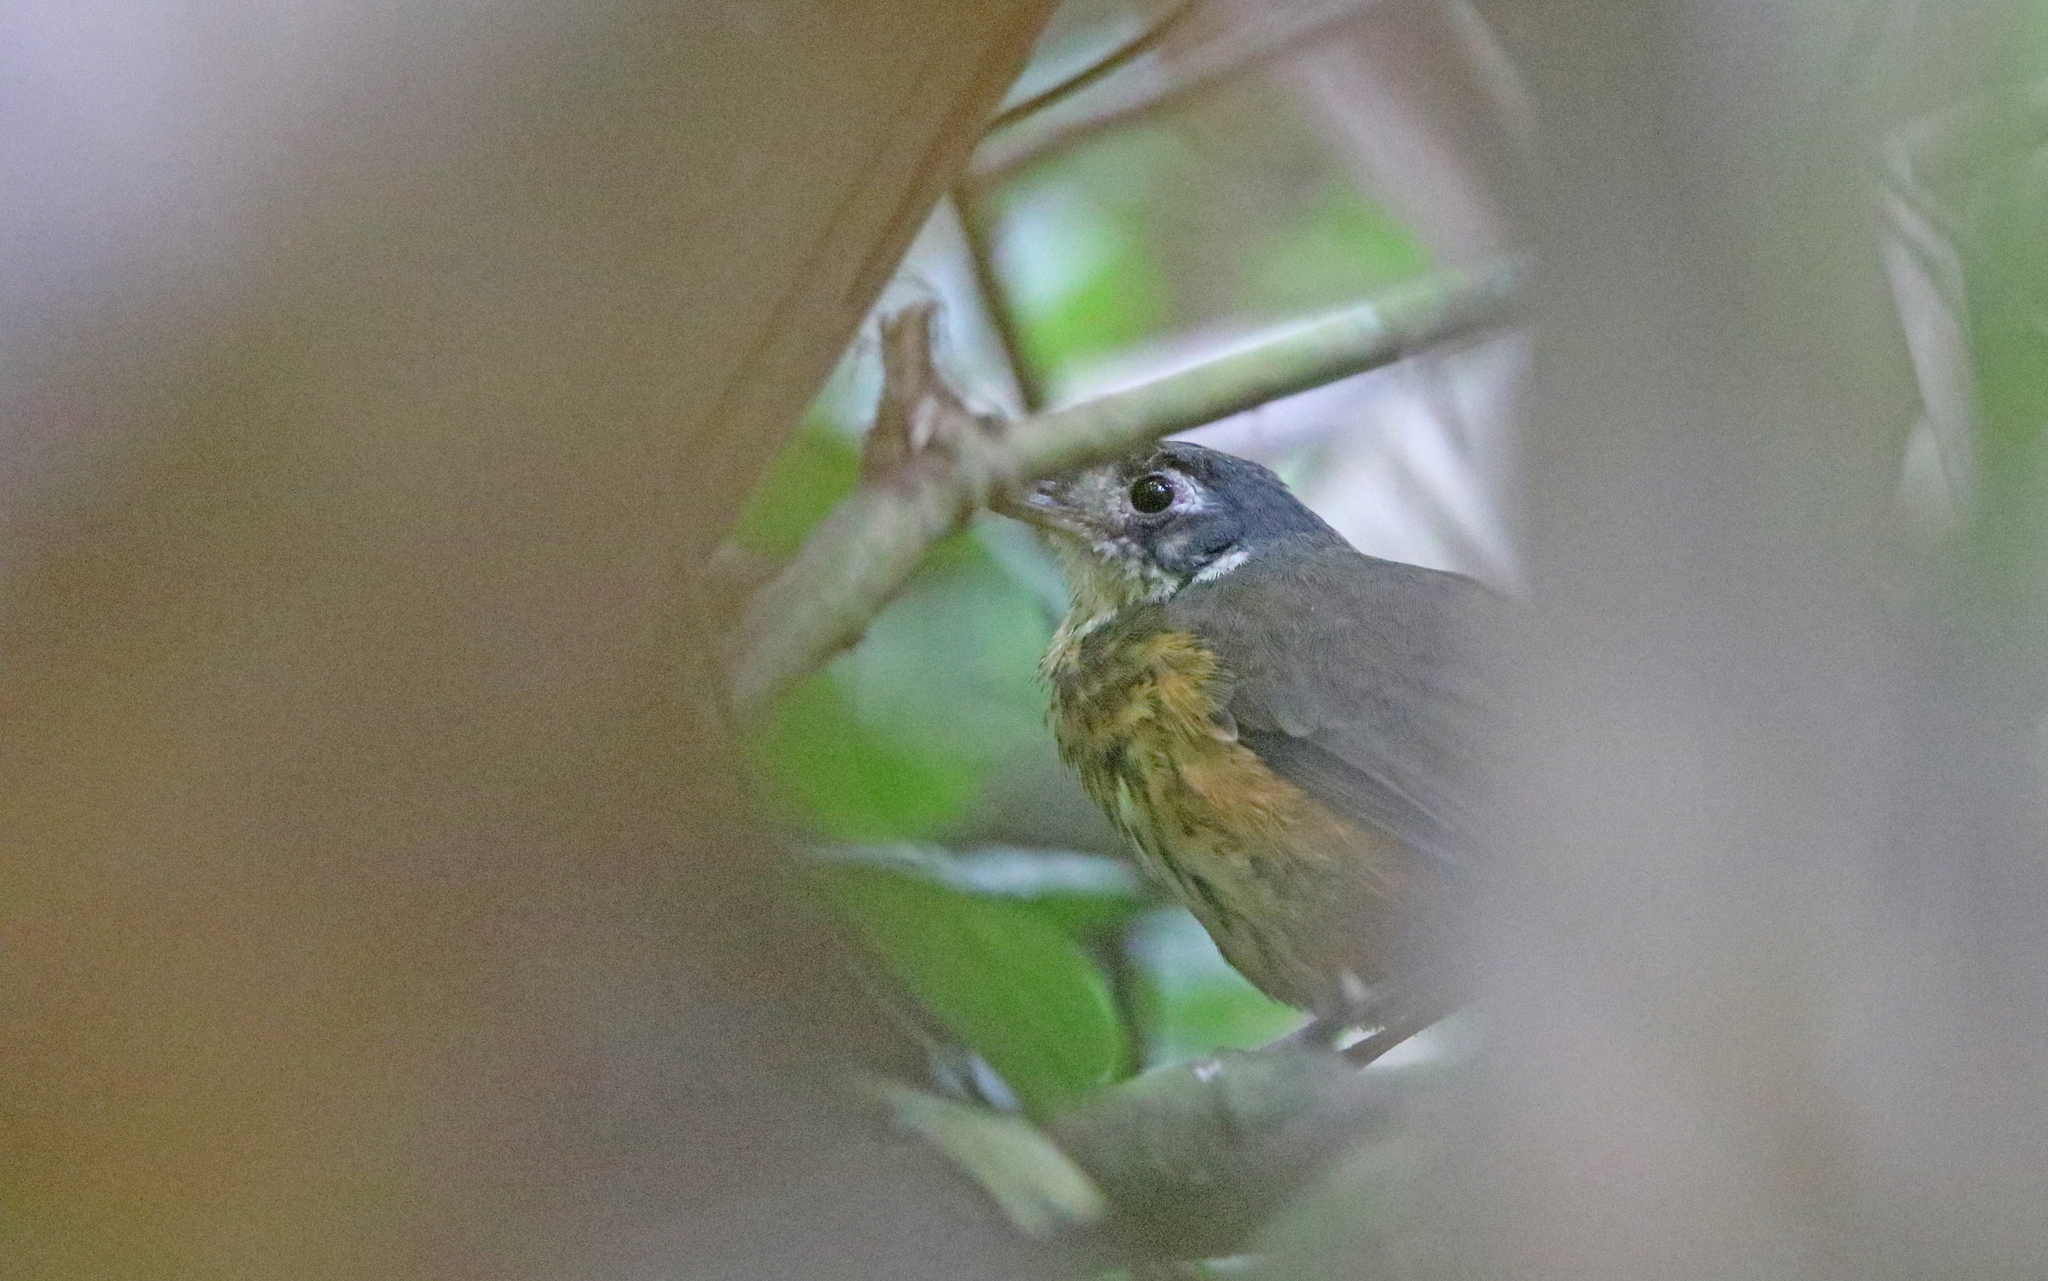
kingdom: Animalia
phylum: Chordata
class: Aves
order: Passeriformes
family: Grallariidae
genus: Hylopezus
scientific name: Hylopezus fulviventris
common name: White-lored antpitta
